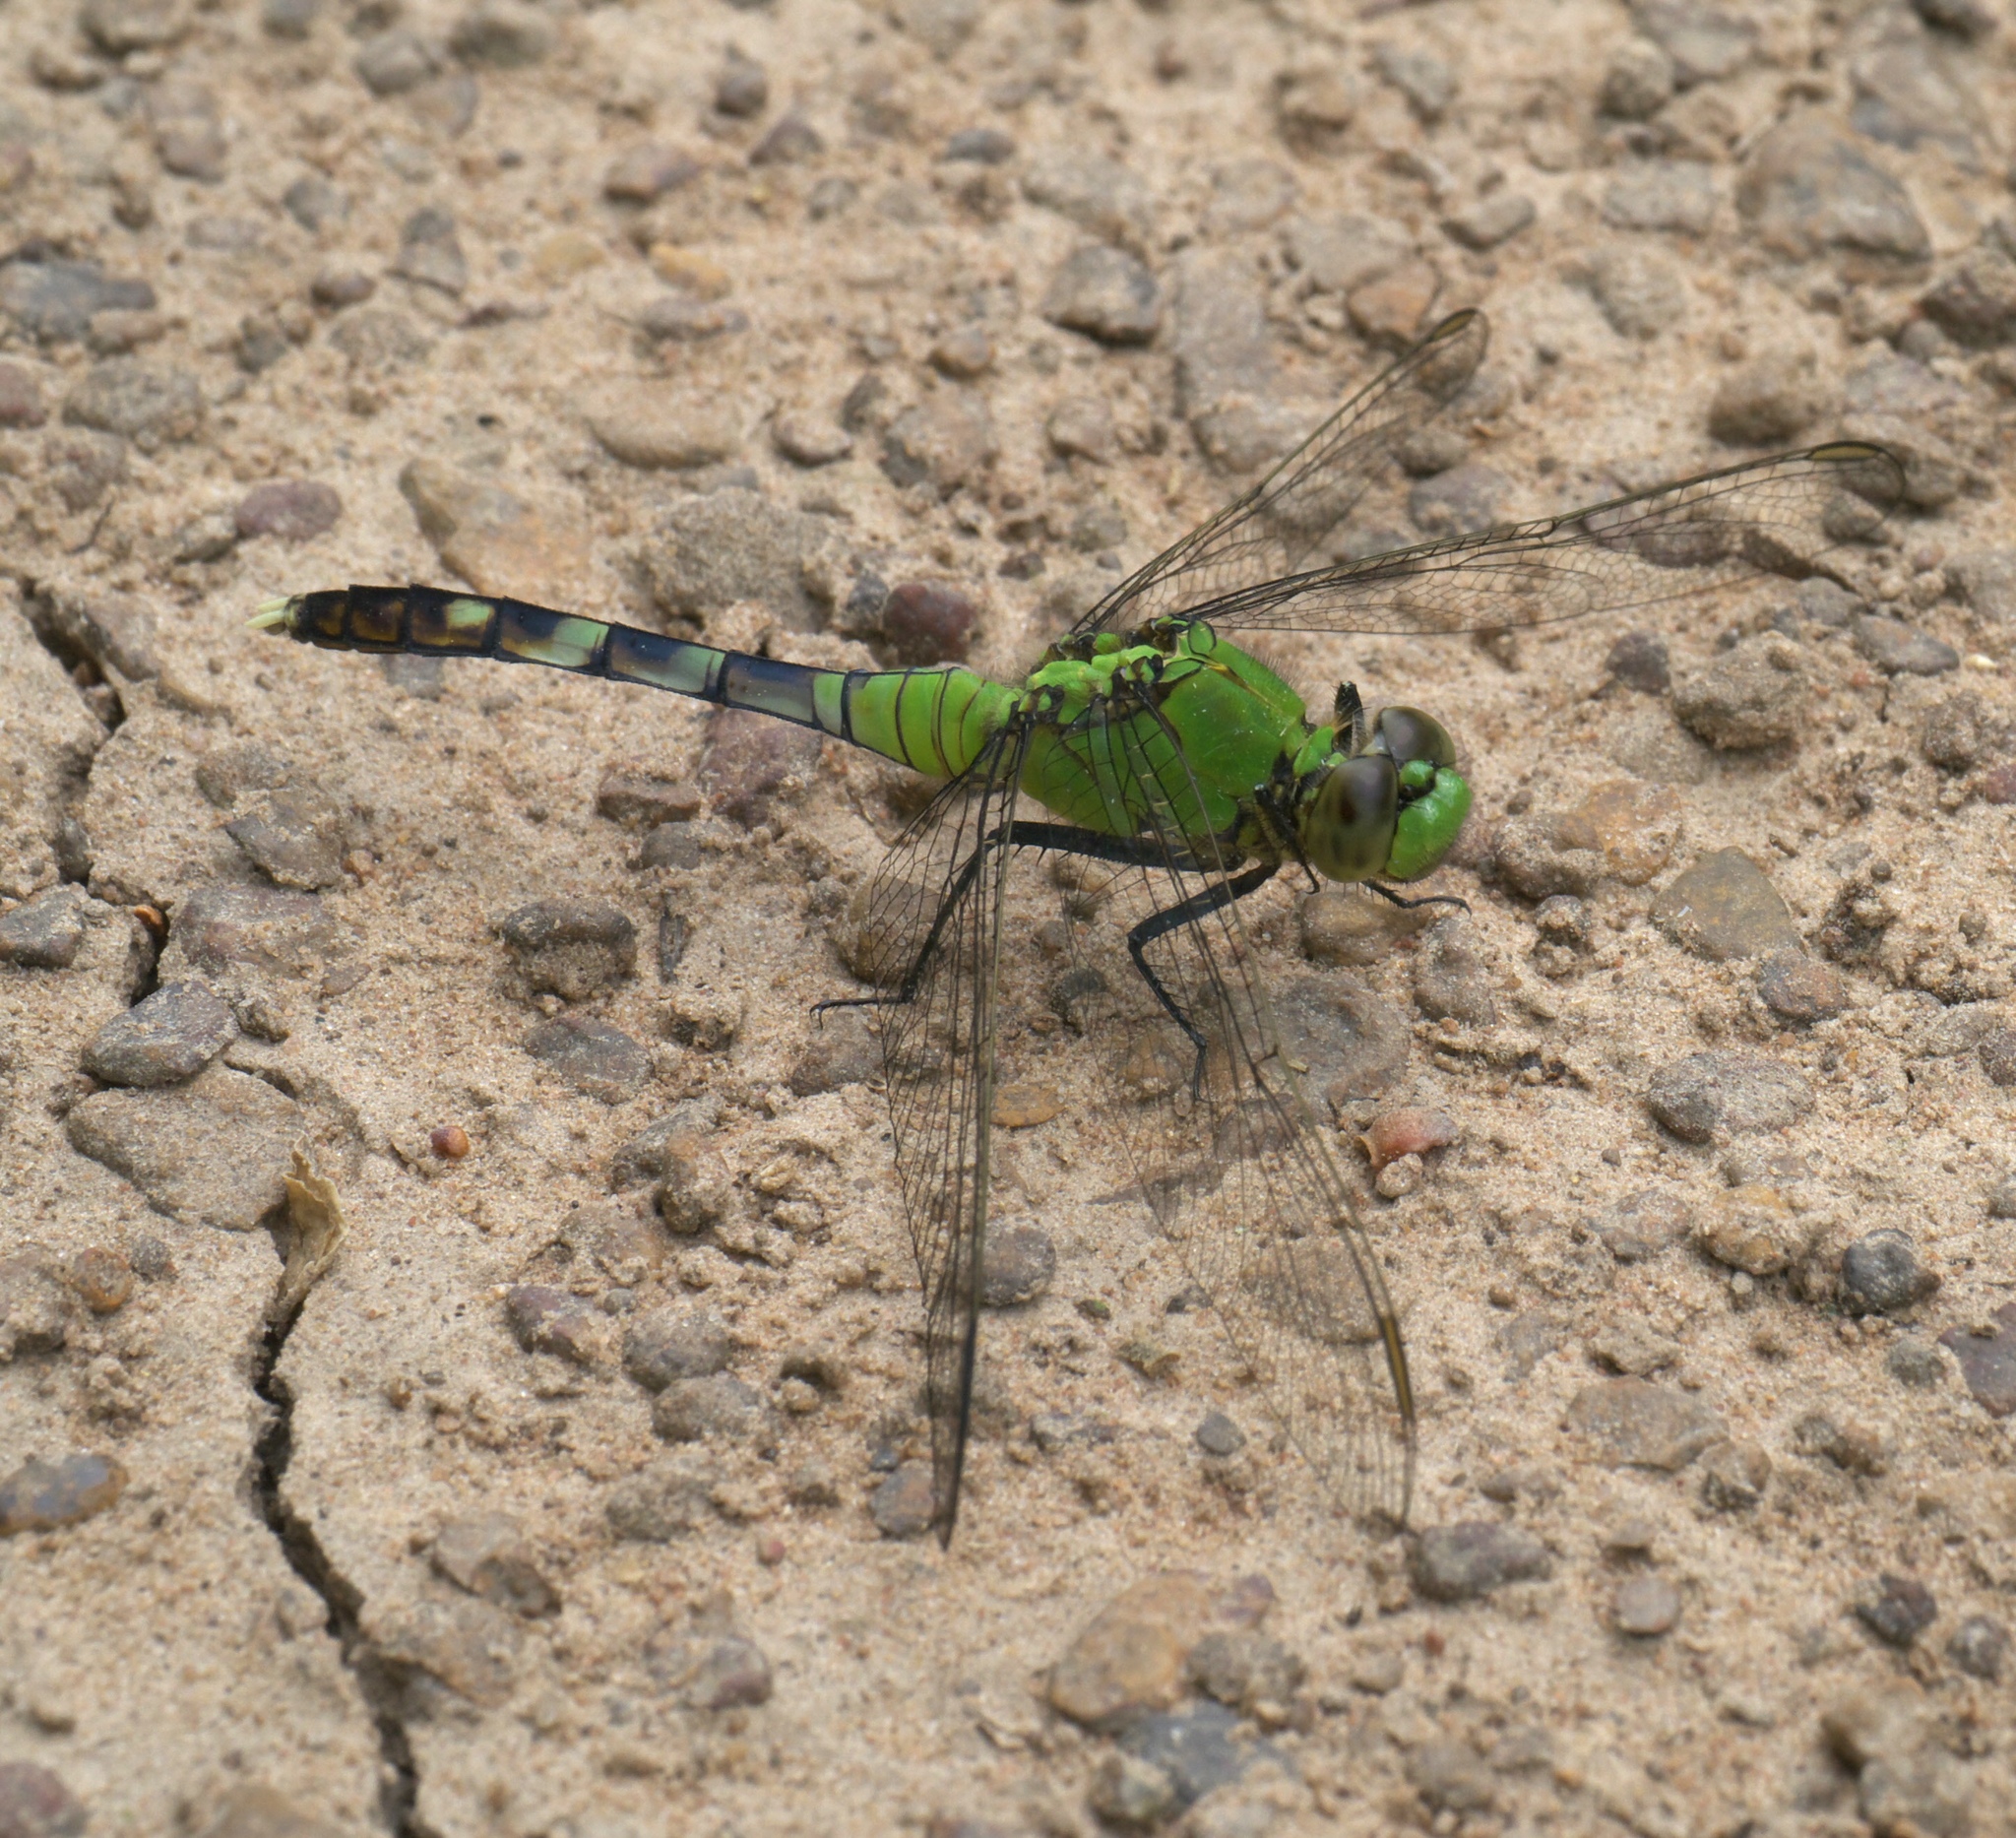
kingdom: Animalia
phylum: Arthropoda
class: Insecta
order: Odonata
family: Libellulidae
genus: Erythemis
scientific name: Erythemis simplicicollis
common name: Eastern pondhawk
